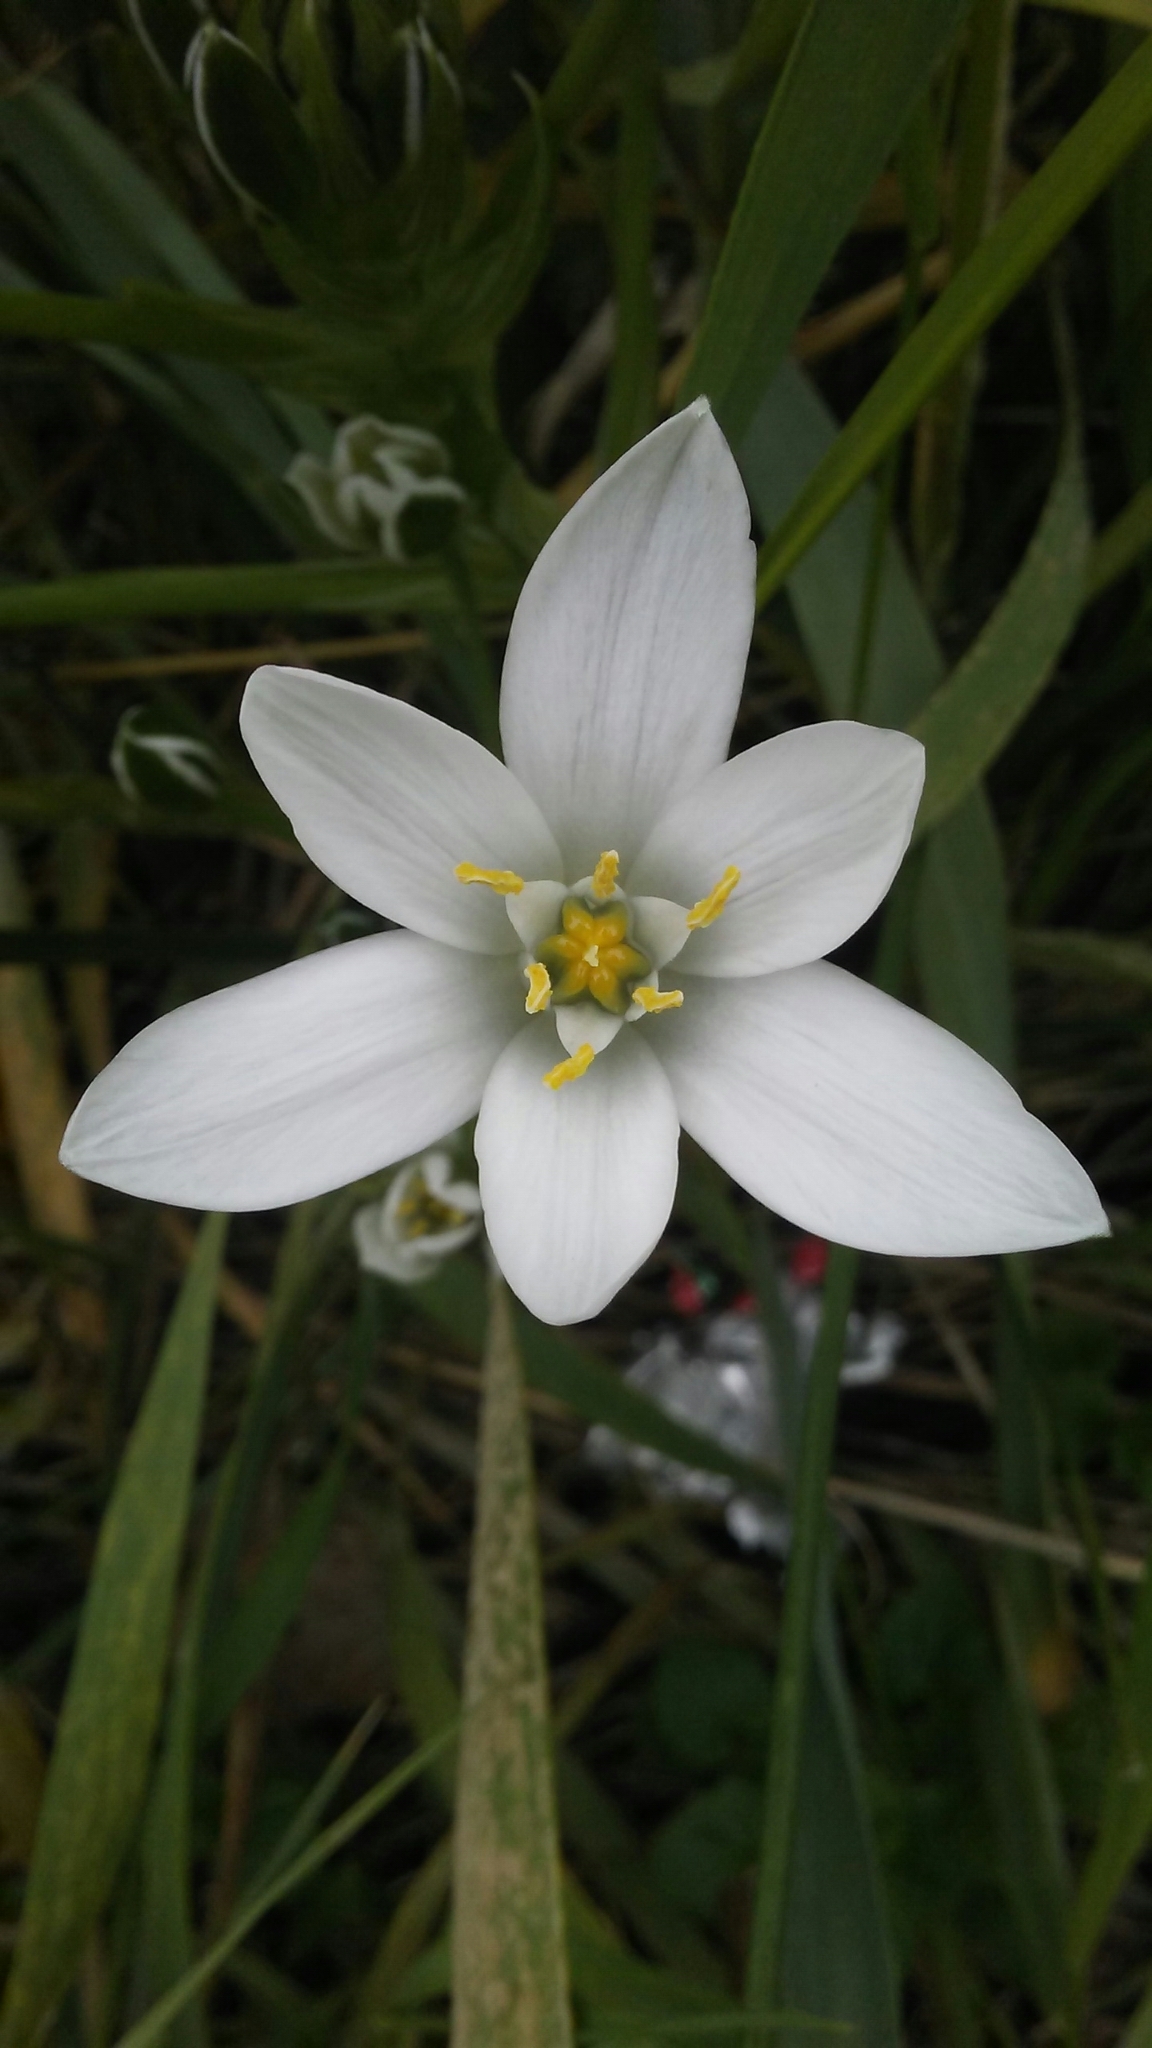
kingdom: Plantae
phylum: Tracheophyta
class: Liliopsida
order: Asparagales
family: Asparagaceae
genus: Ornithogalum
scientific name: Ornithogalum umbellatum
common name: Garden star-of-bethlehem
